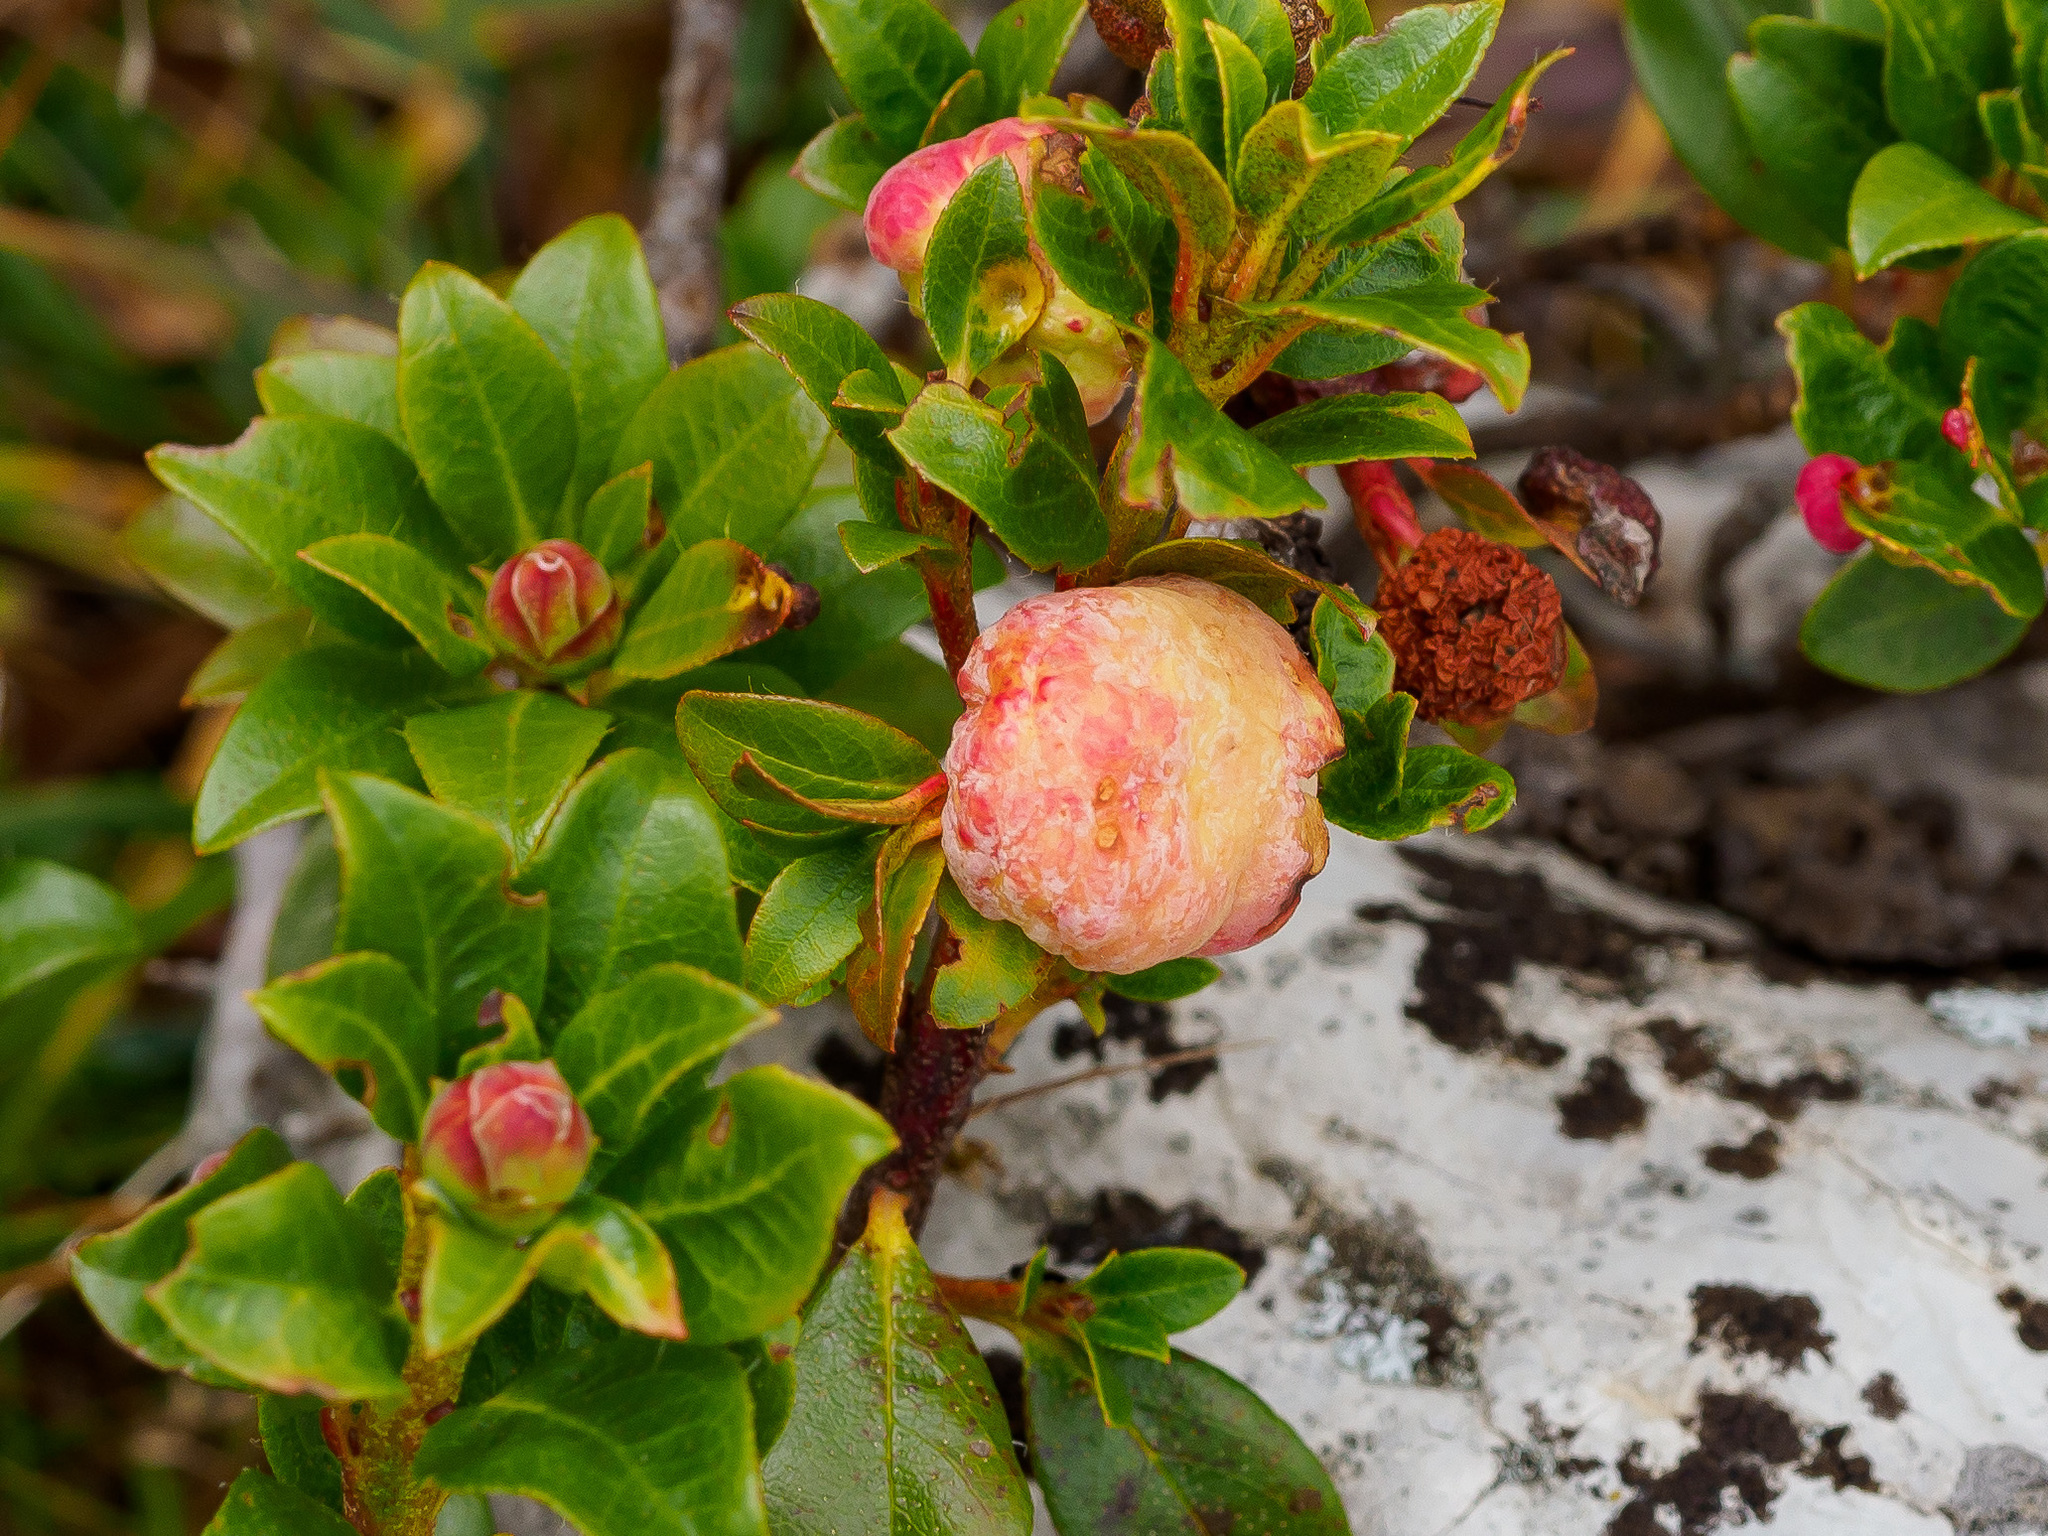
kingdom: Fungi
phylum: Basidiomycota
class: Exobasidiomycetes
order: Exobasidiales
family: Exobasidiaceae
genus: Exobasidium
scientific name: Exobasidium rhododendri
